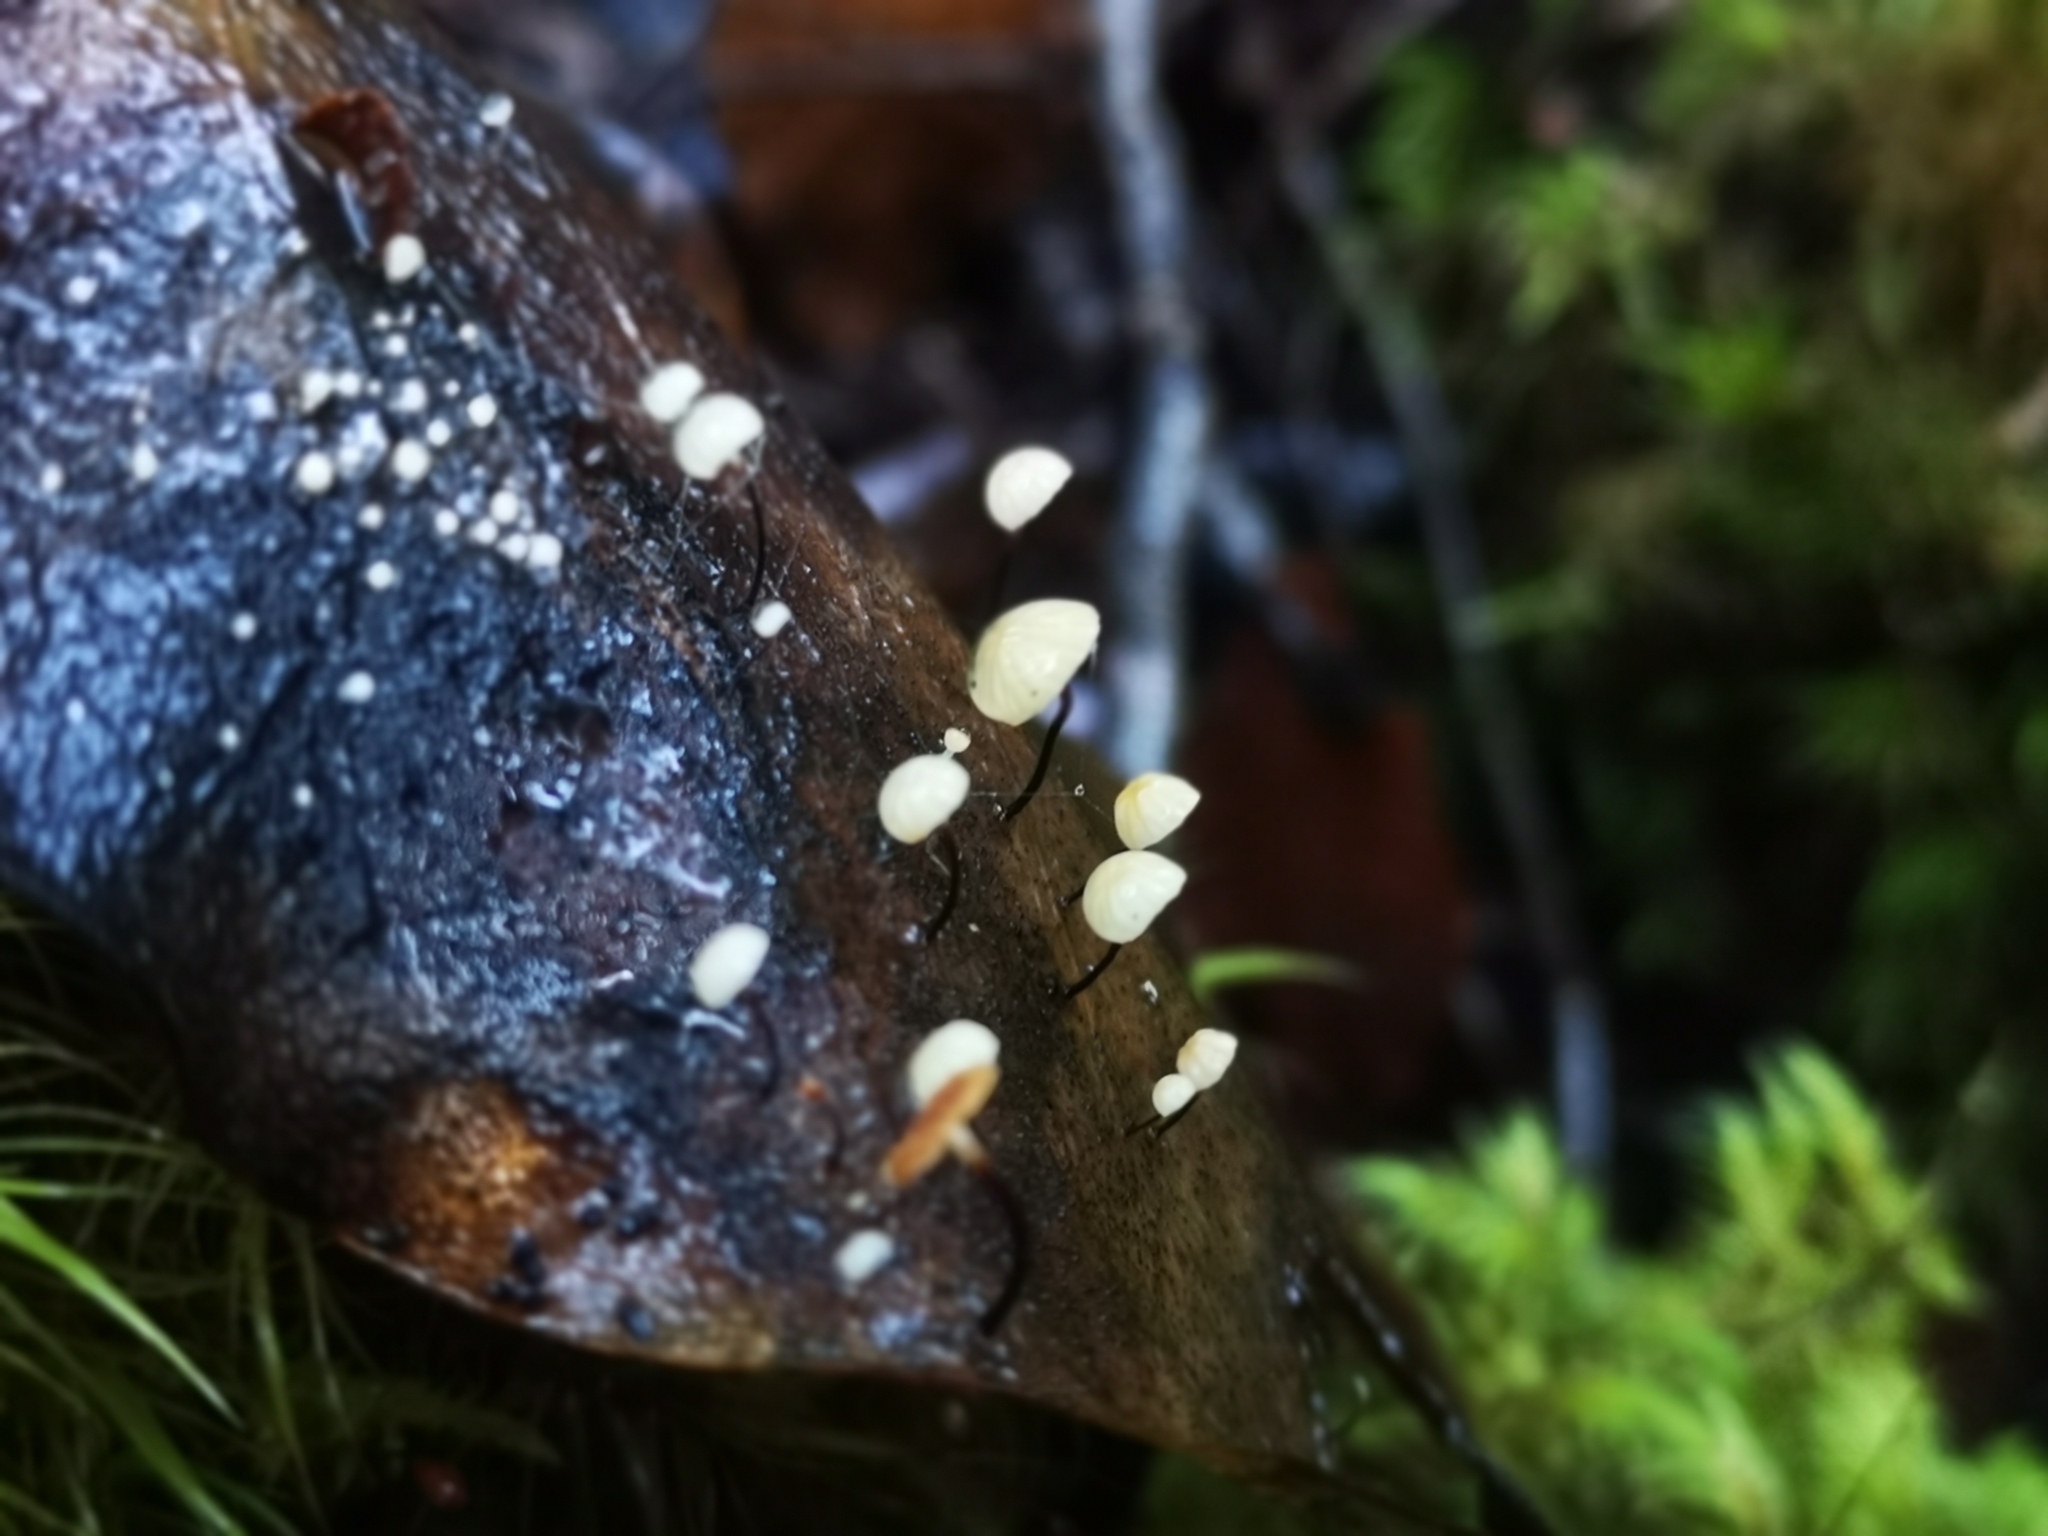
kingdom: Fungi
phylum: Basidiomycota
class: Agaricomycetes
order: Agaricales
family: Physalacriaceae
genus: Gloiocephala
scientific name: Gloiocephala xanthocephala
